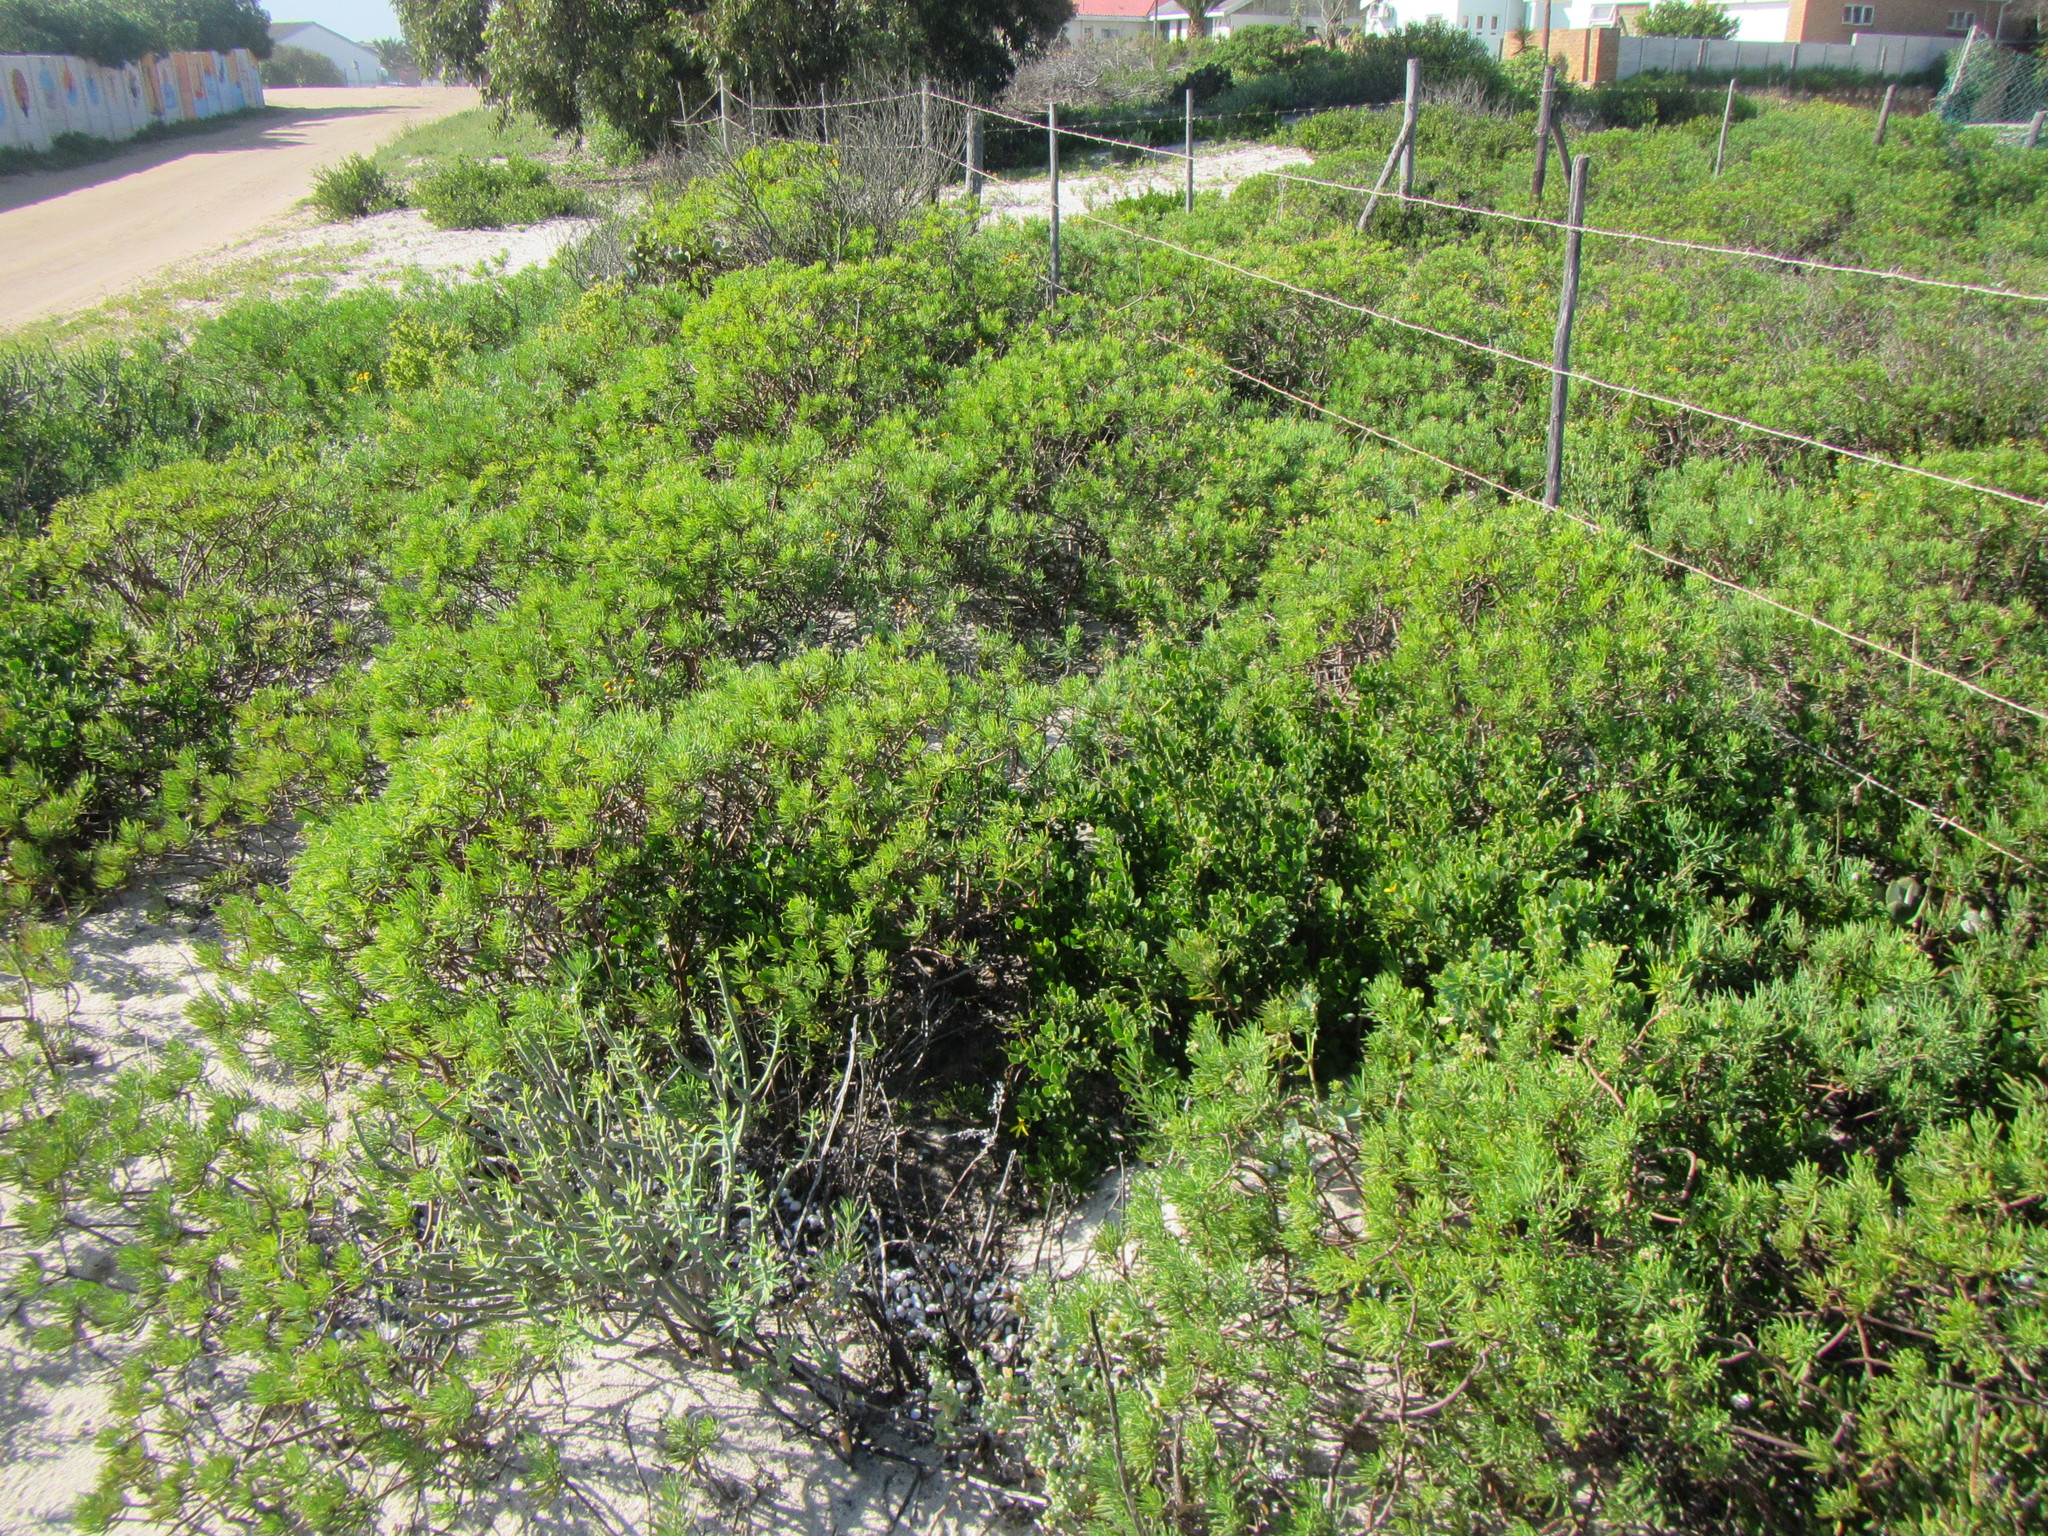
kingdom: Plantae
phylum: Tracheophyta
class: Magnoliopsida
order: Asterales
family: Asteraceae
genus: Crassothonna
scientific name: Crassothonna cylindrica
